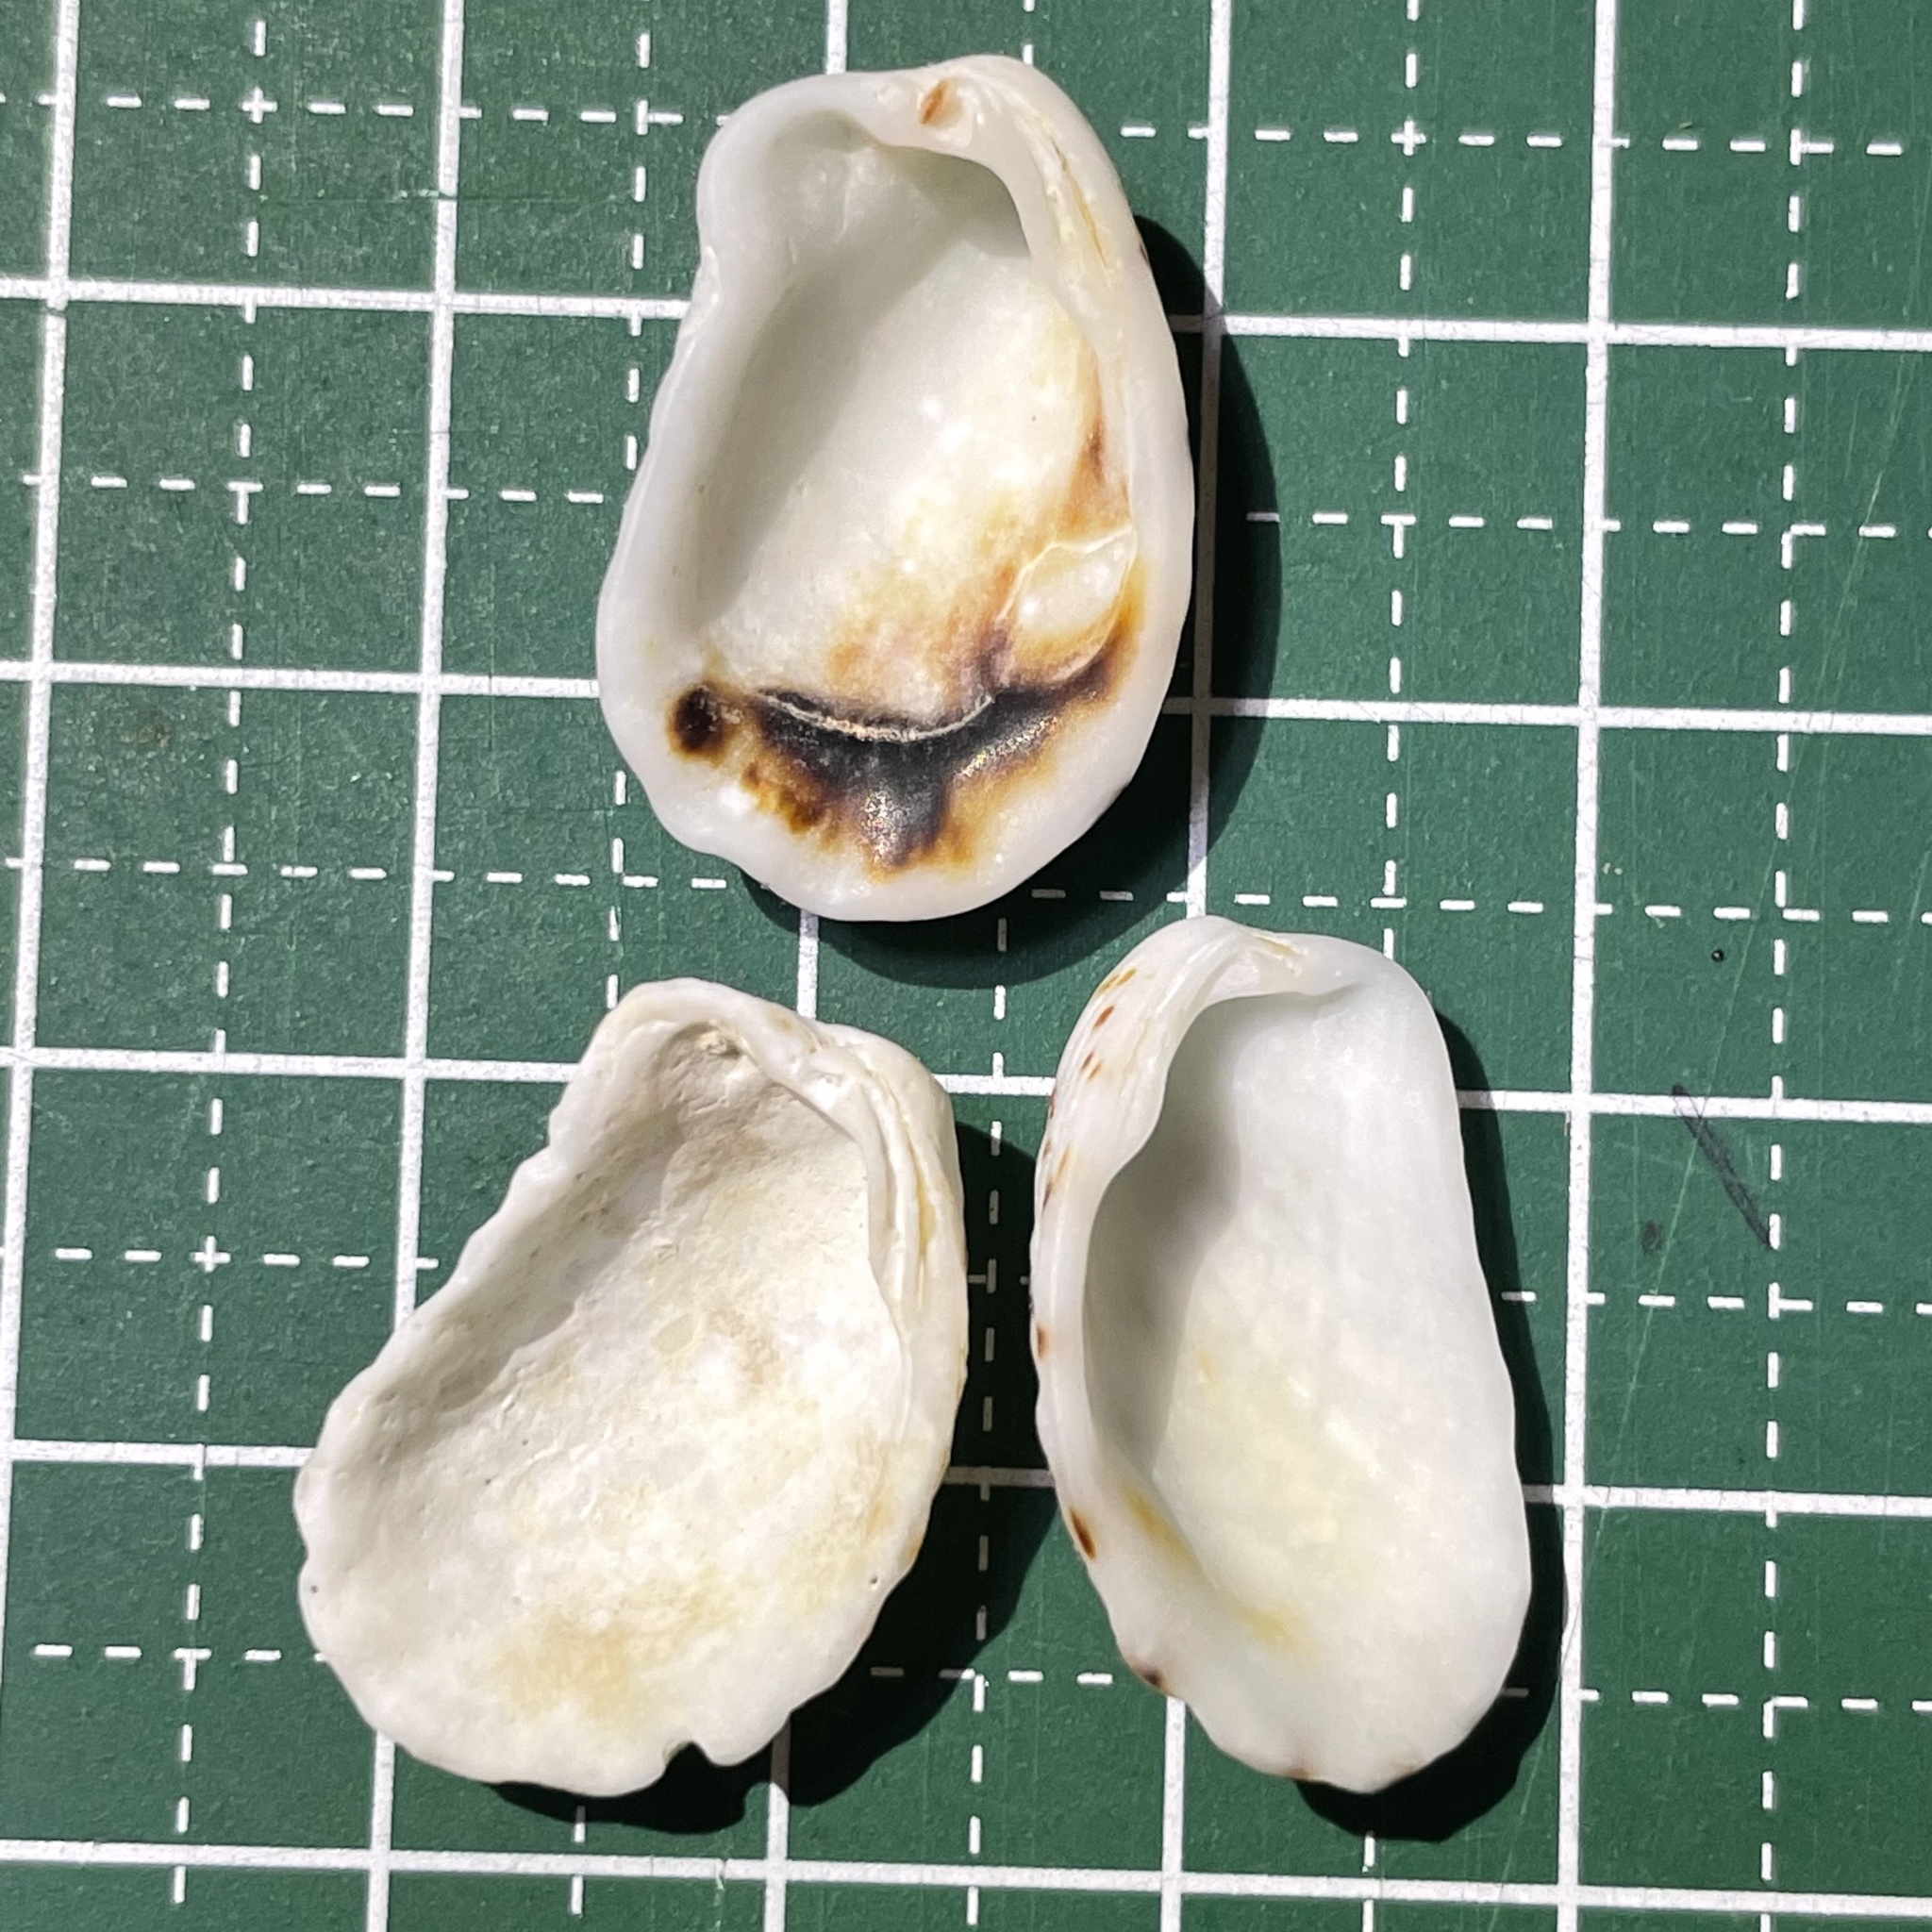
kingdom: Animalia
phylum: Mollusca
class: Bivalvia
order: Carditida
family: Carditidae
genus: Cardita
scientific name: Cardita variegata
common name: Rectangular false cockle
